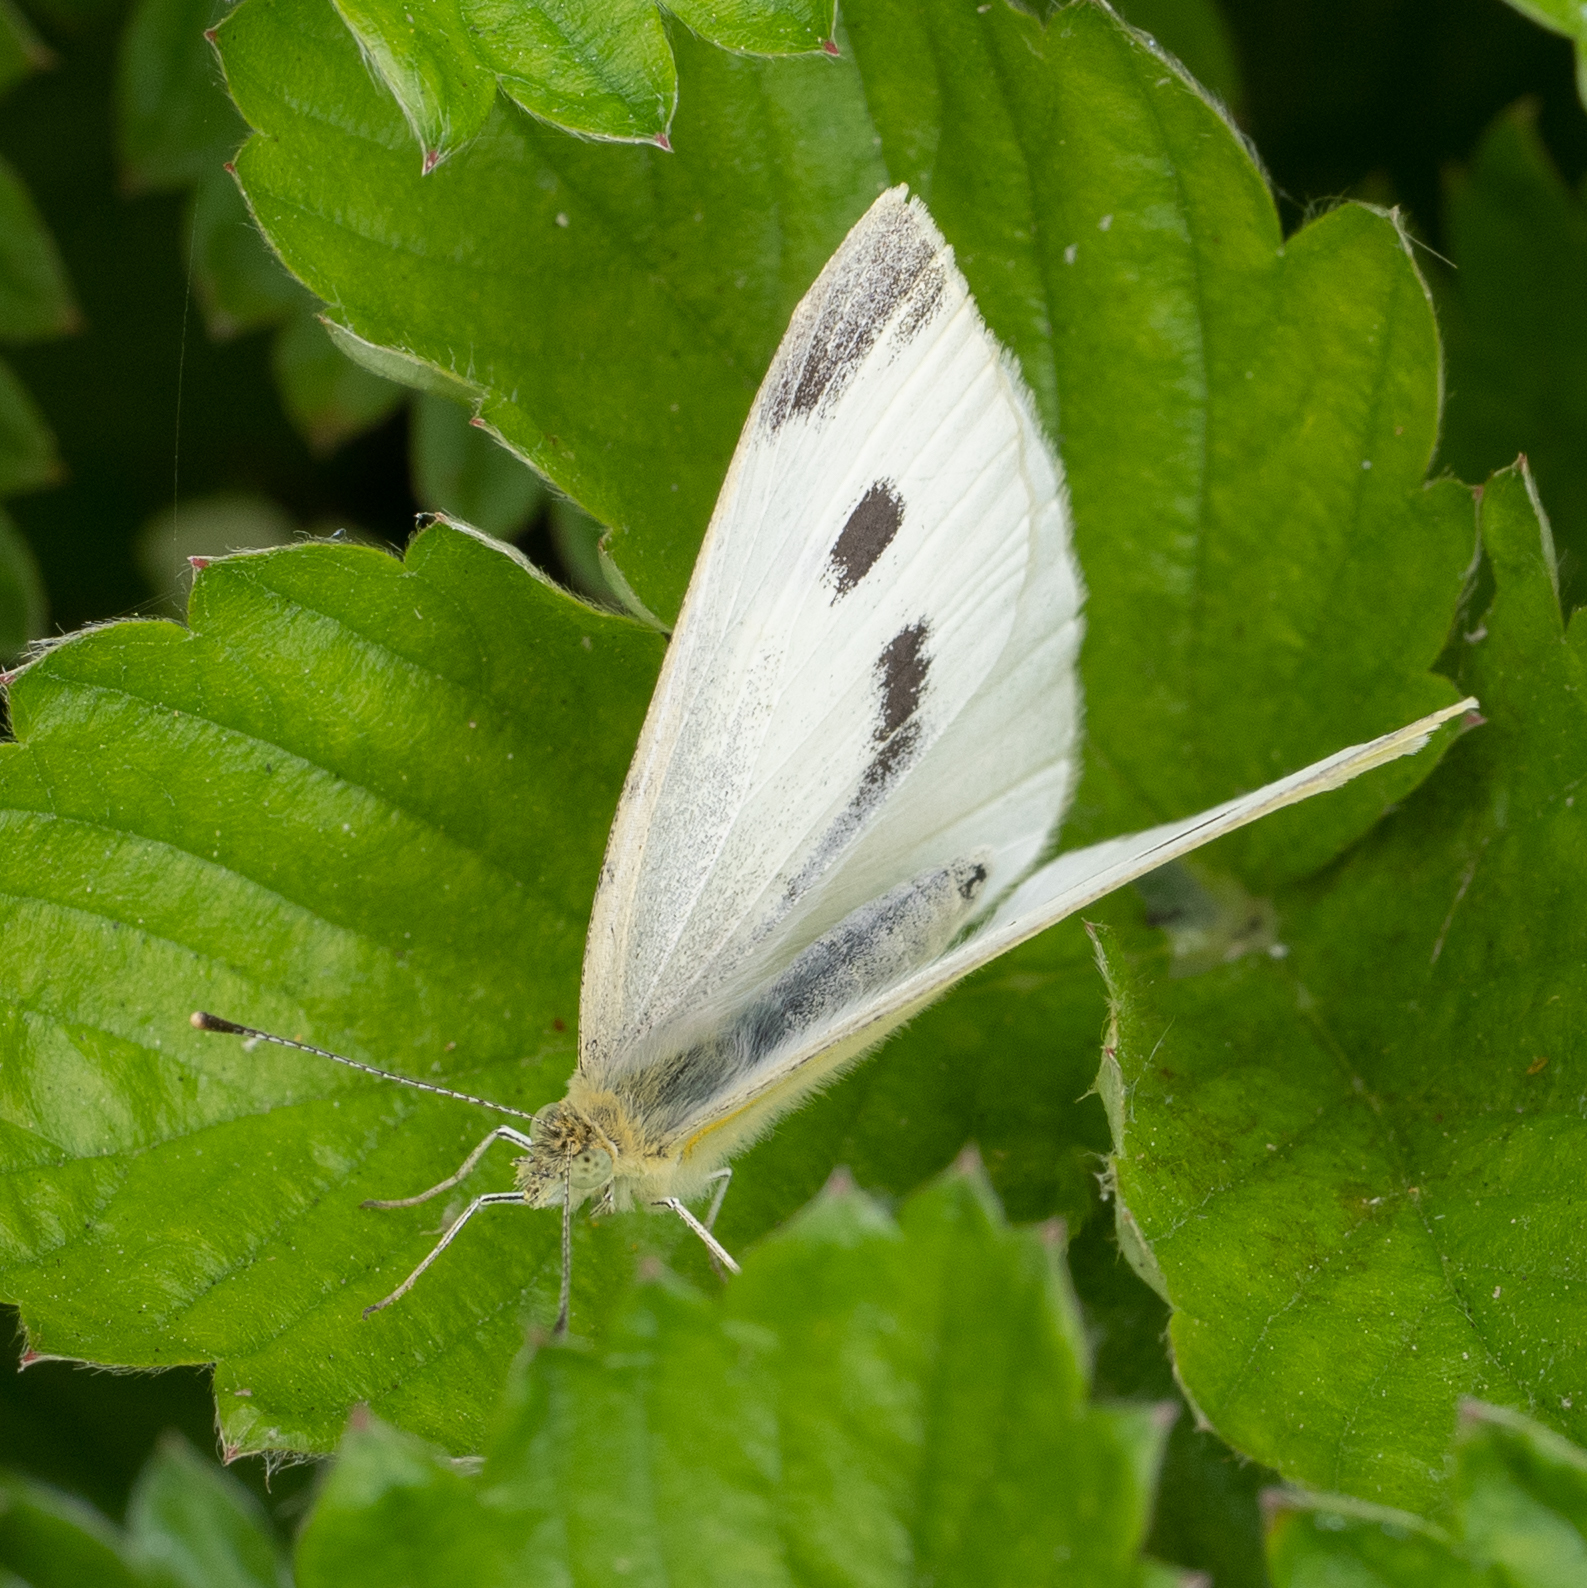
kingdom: Animalia
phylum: Arthropoda
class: Insecta
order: Lepidoptera
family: Pieridae
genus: Pieris
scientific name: Pieris rapae
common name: Small white
